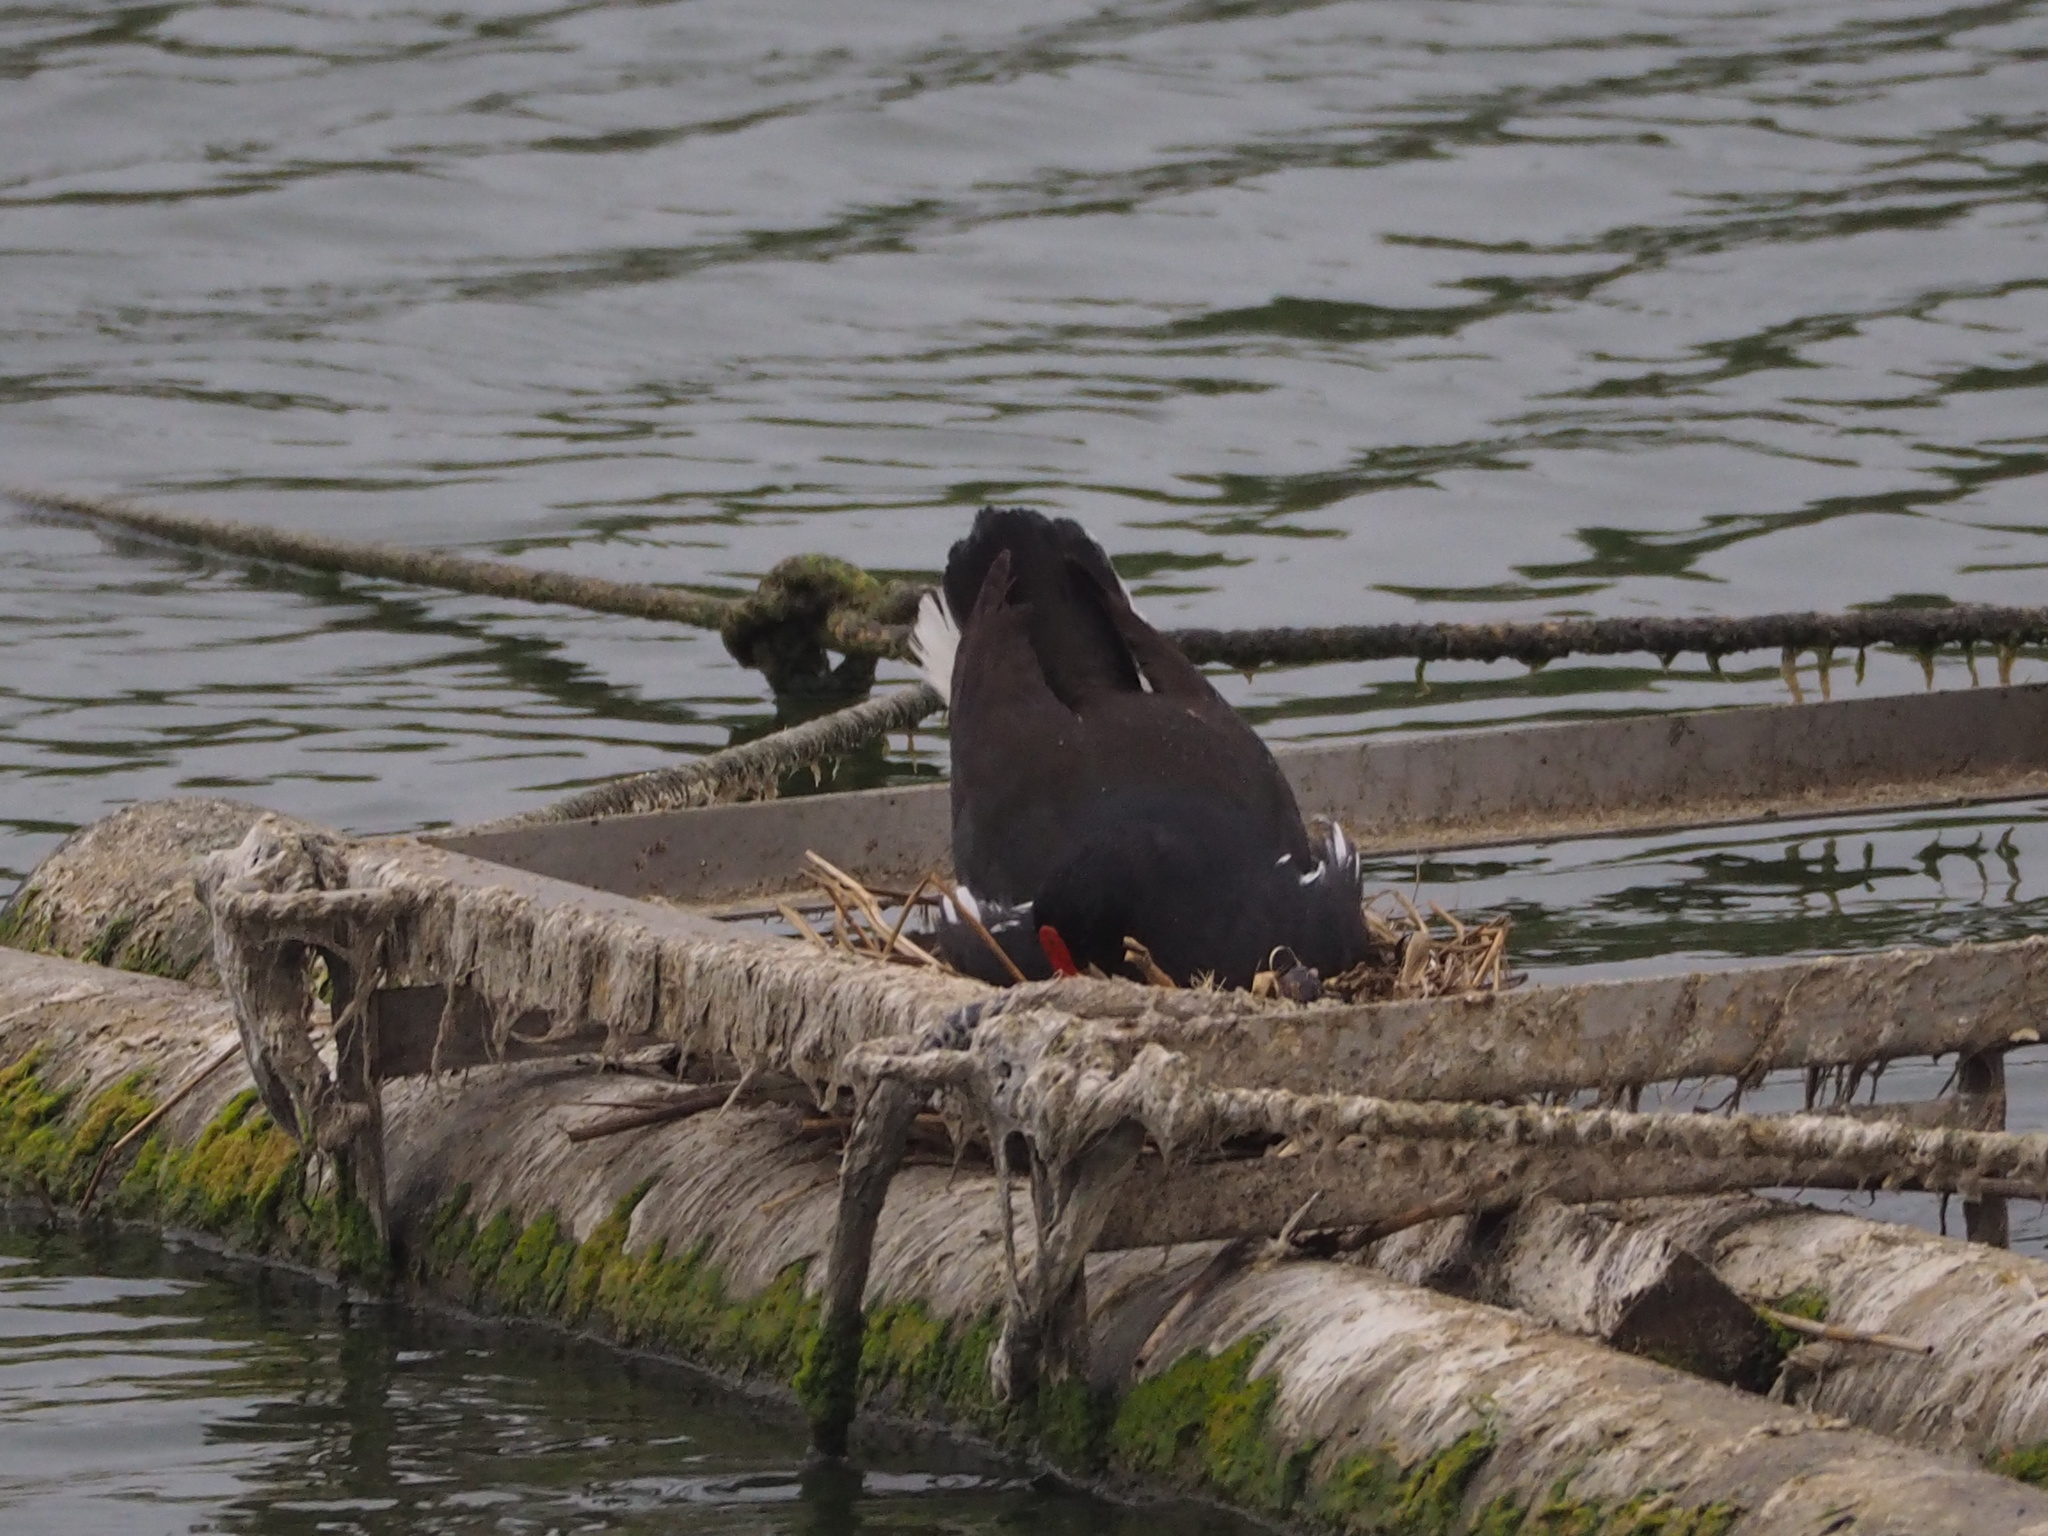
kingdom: Animalia
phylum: Chordata
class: Aves
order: Gruiformes
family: Rallidae
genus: Gallinula
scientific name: Gallinula chloropus
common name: Common moorhen
